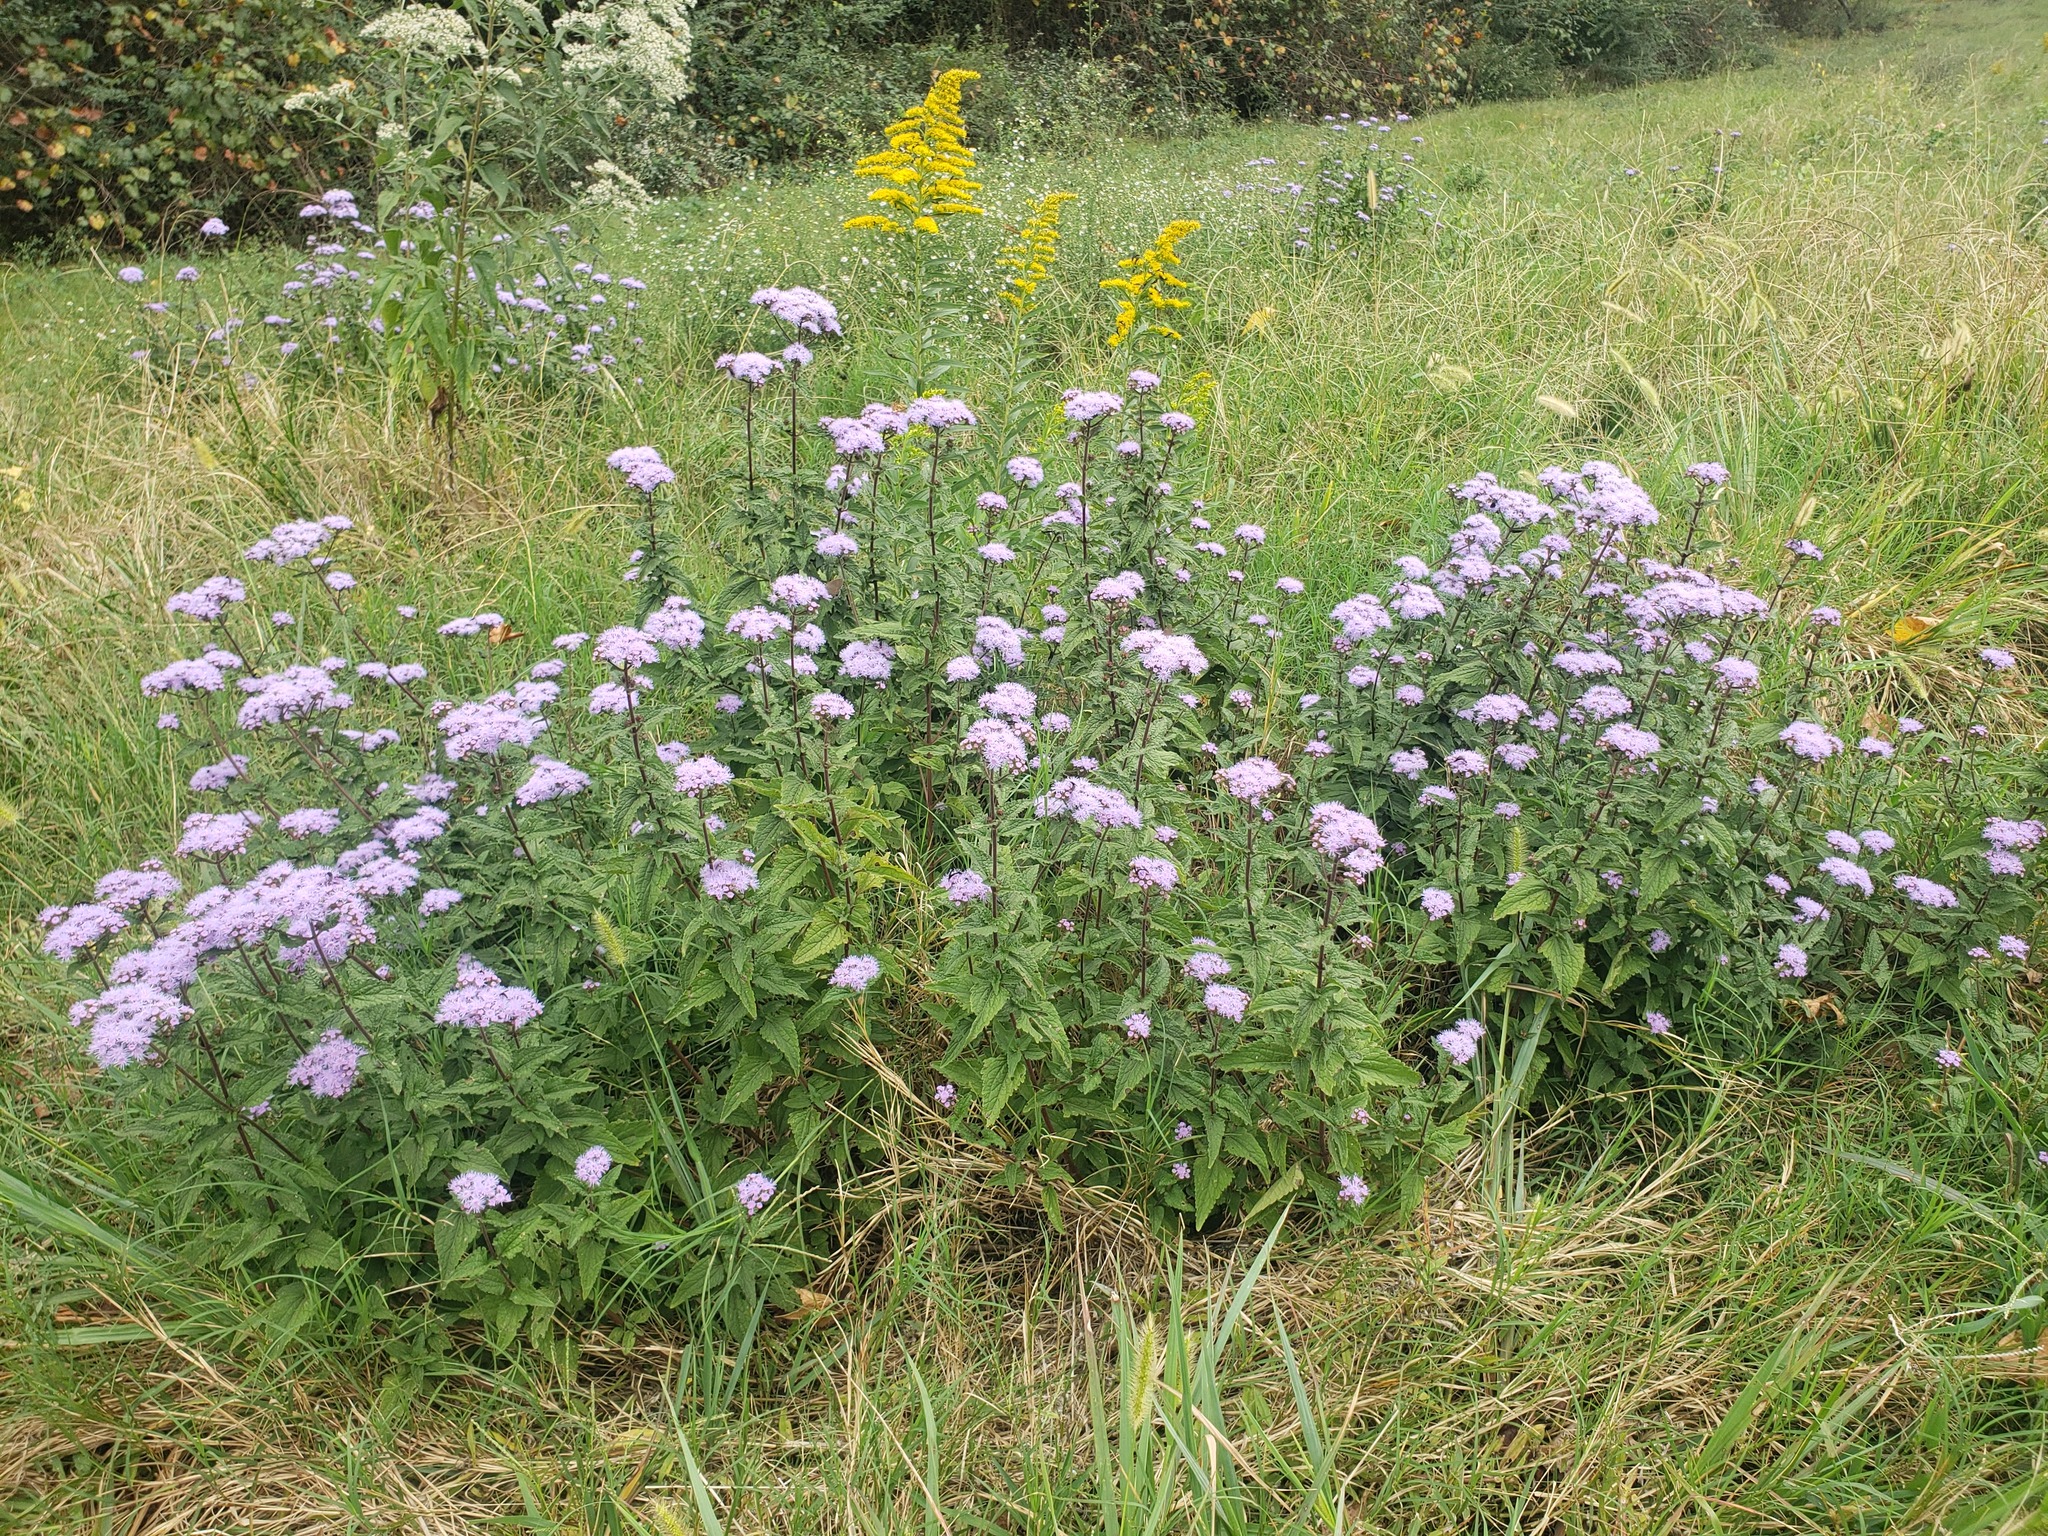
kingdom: Plantae
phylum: Tracheophyta
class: Magnoliopsida
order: Asterales
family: Asteraceae
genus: Conoclinium
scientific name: Conoclinium coelestinum
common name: Blue mistflower
